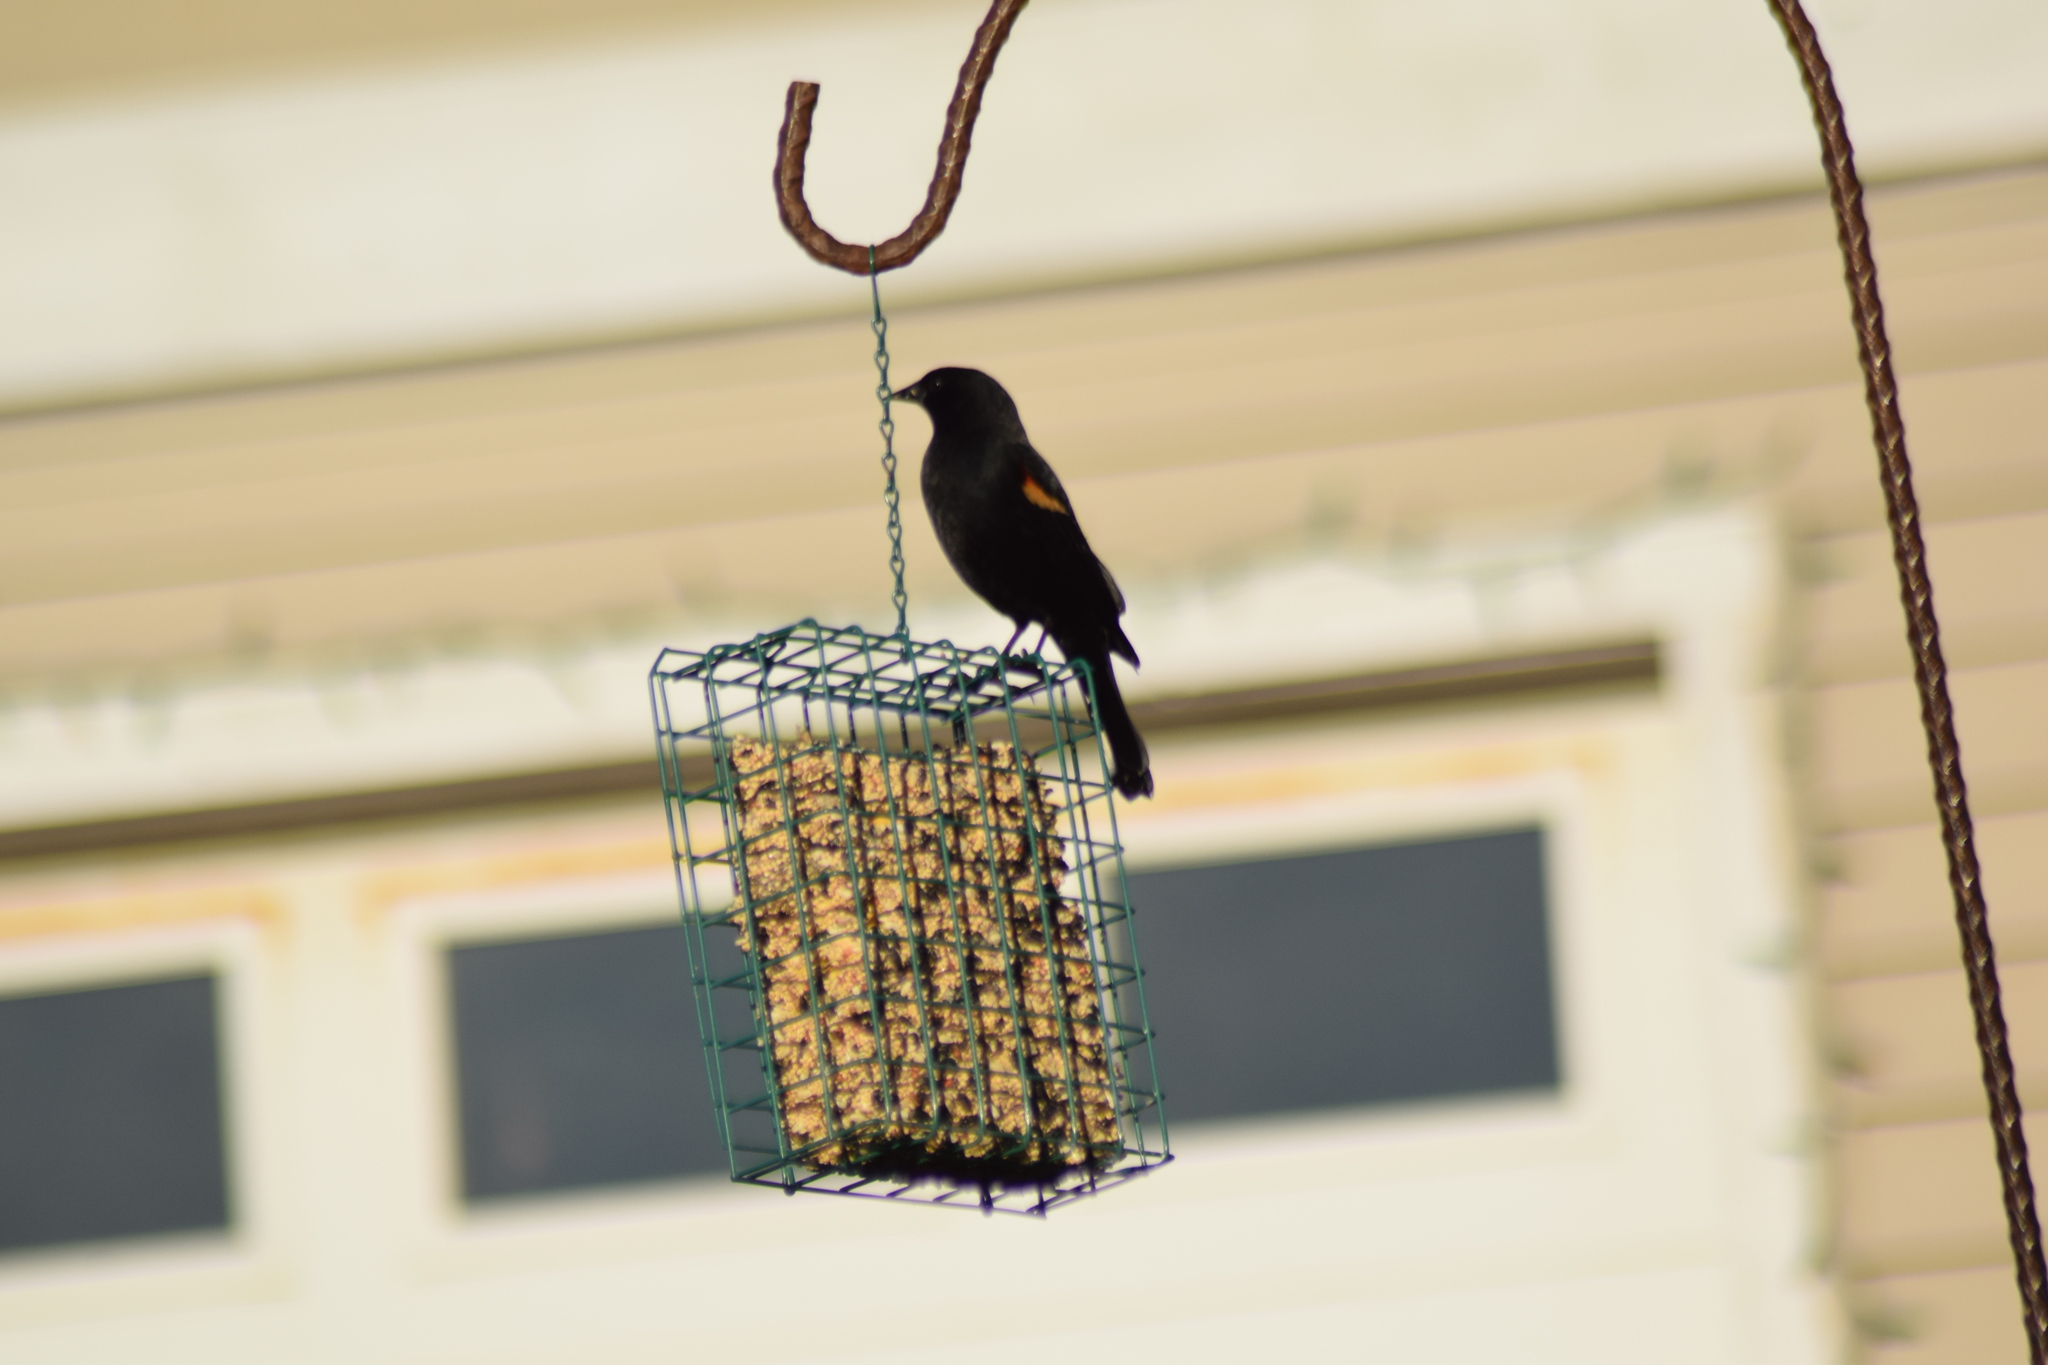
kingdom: Animalia
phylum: Chordata
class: Aves
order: Passeriformes
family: Icteridae
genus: Agelaius
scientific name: Agelaius phoeniceus
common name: Red-winged blackbird
